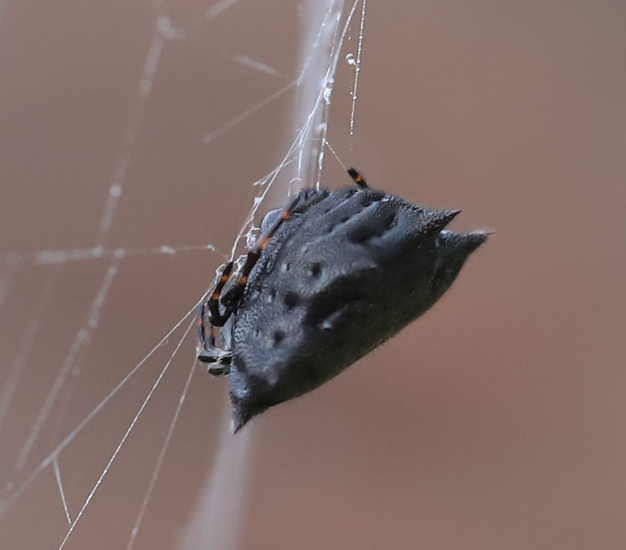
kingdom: Animalia
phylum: Arthropoda
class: Arachnida
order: Araneae
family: Araneidae
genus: Gasteracantha
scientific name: Gasteracantha cancriformis
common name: Orb weavers
